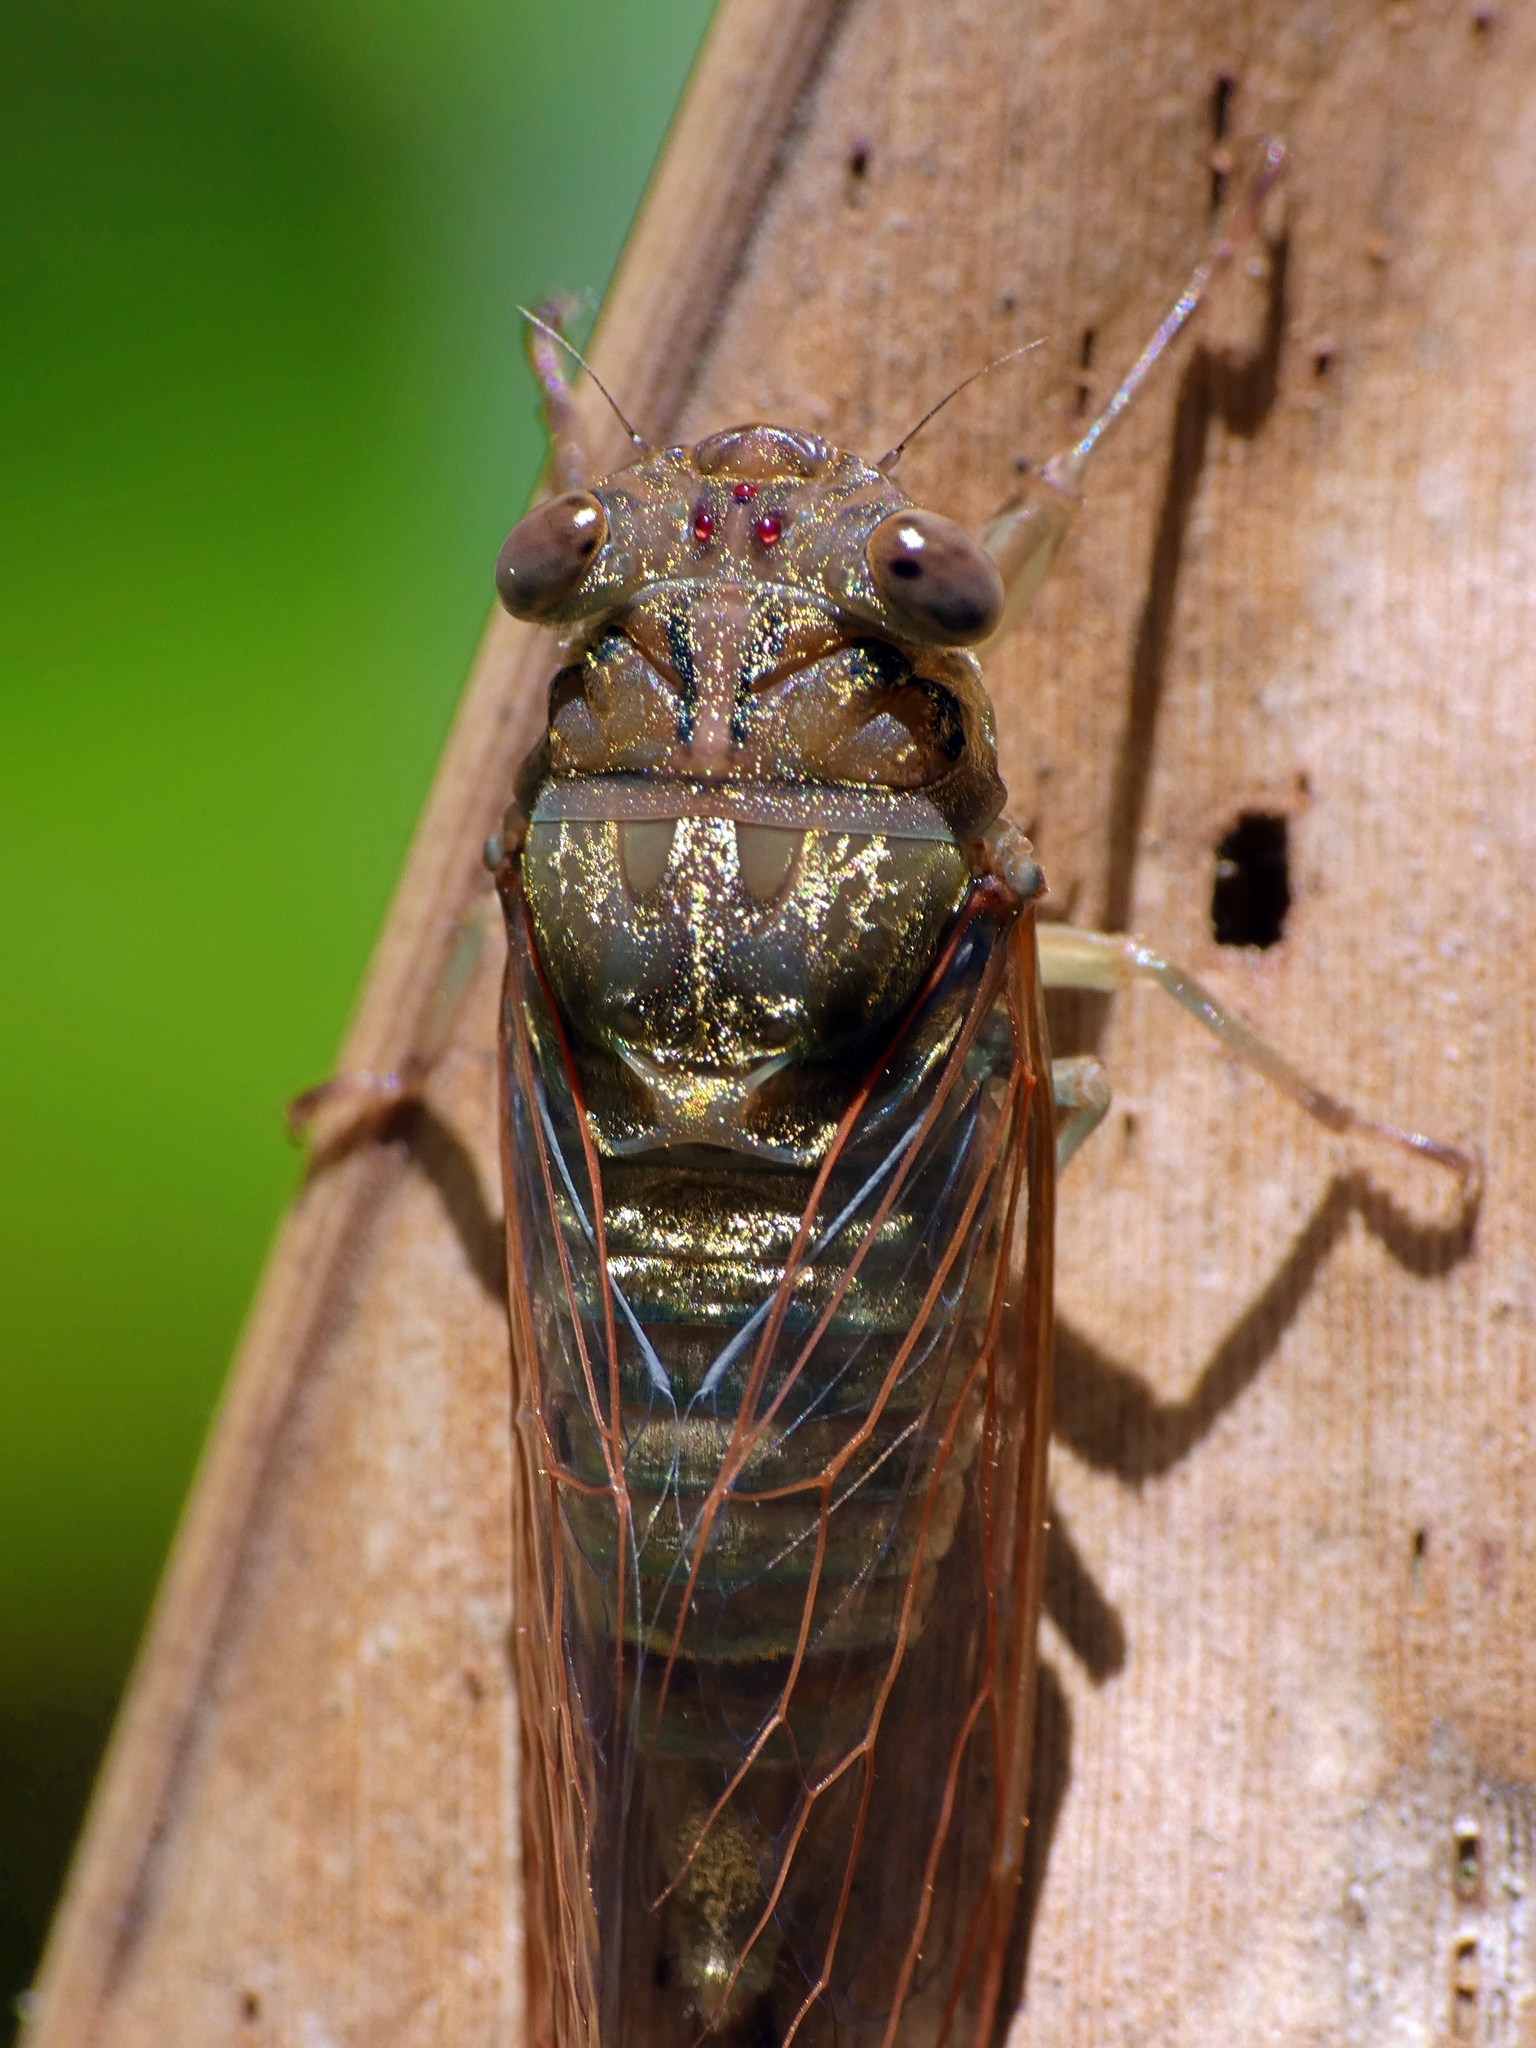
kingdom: Animalia
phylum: Arthropoda
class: Insecta
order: Hemiptera
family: Cicadidae
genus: Tamasa
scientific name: Tamasa doddi
